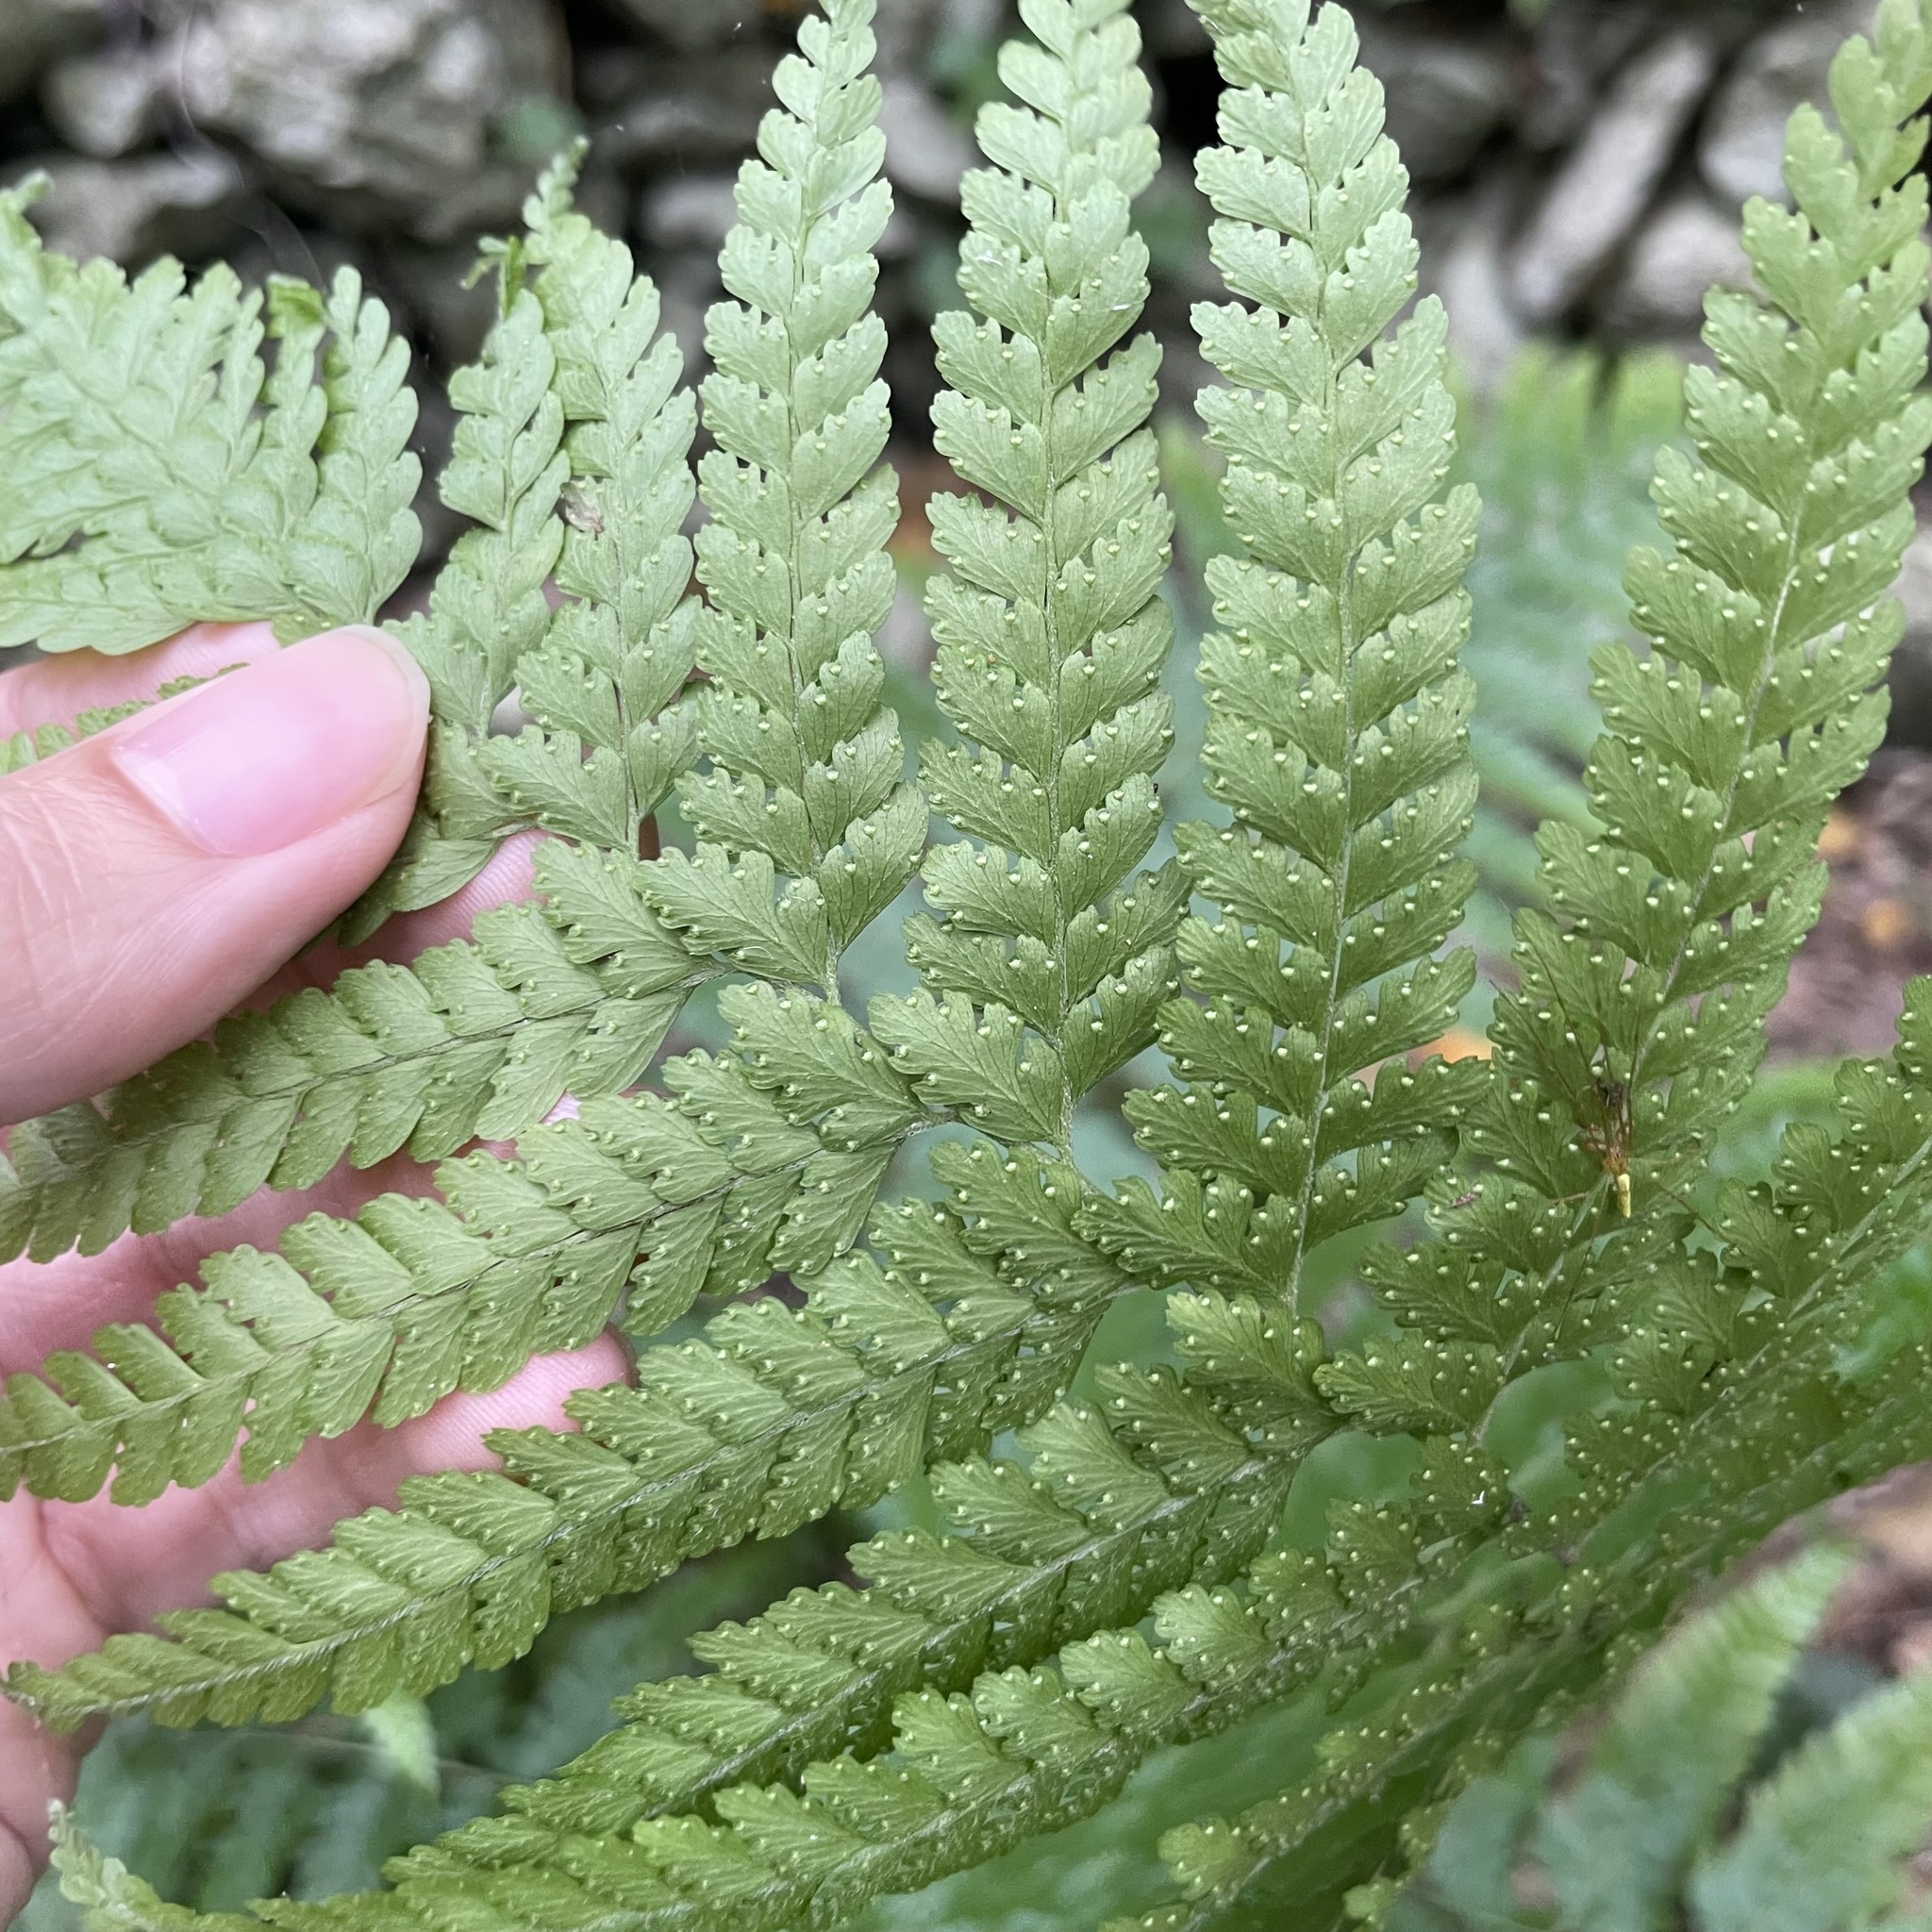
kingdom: Plantae
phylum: Tracheophyta
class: Polypodiopsida
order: Polypodiales
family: Dennstaedtiaceae
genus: Microlepia
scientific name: Microlepia strigosa
